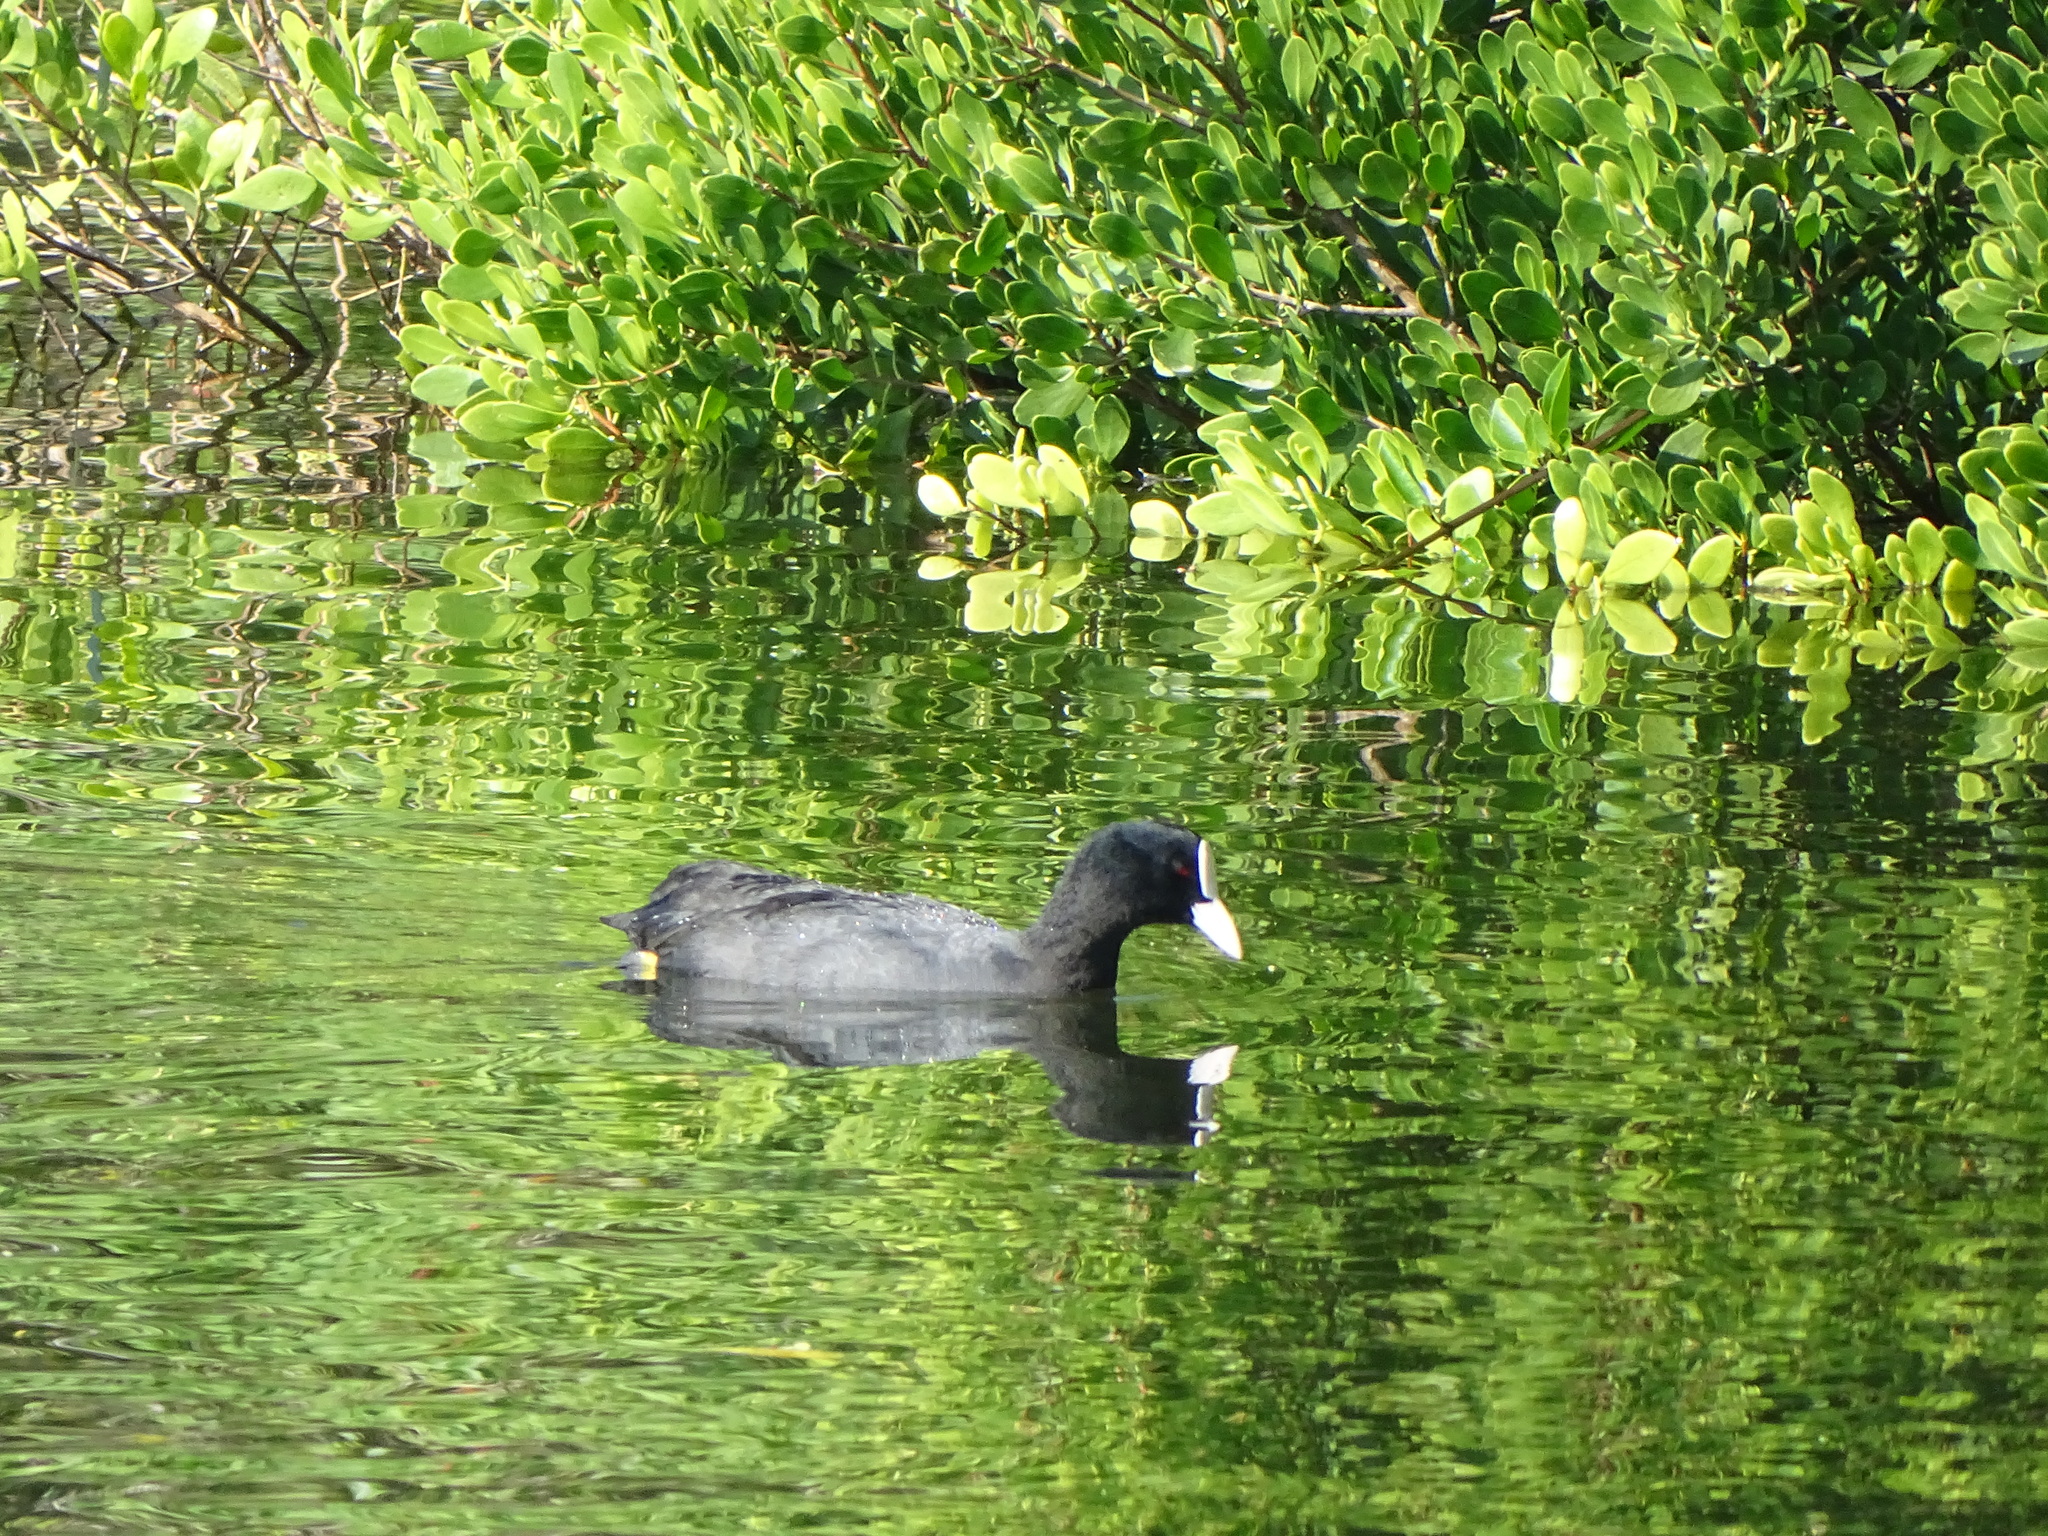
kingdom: Animalia
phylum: Chordata
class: Aves
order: Gruiformes
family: Rallidae
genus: Fulica
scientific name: Fulica atra
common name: Eurasian coot
